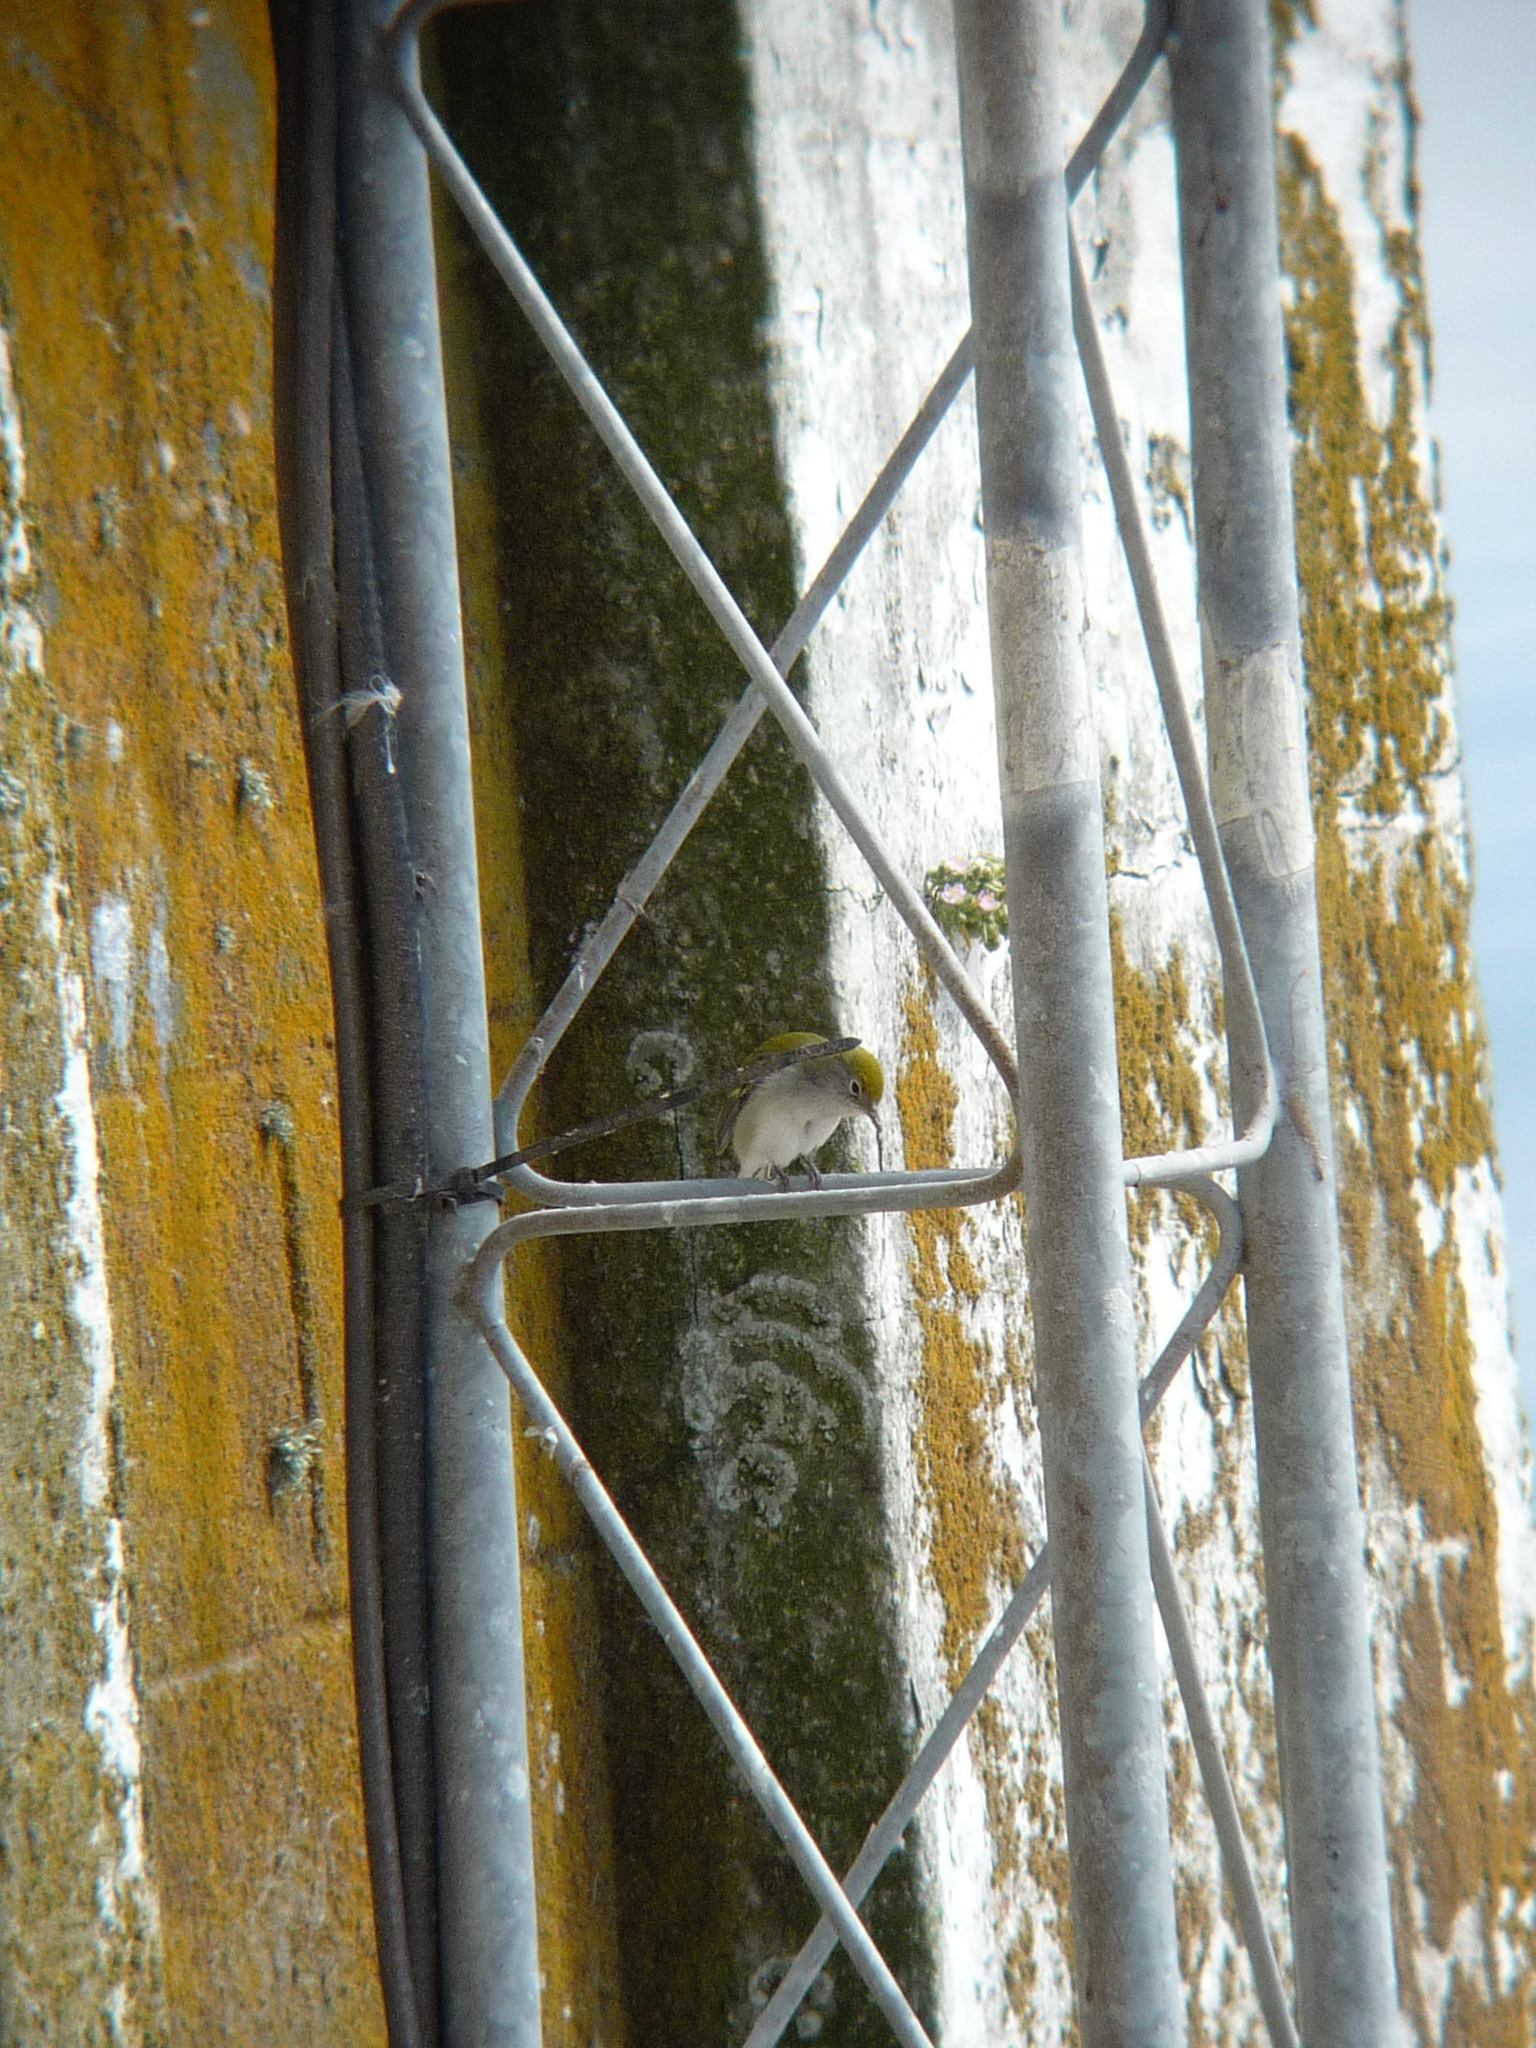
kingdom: Animalia
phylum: Chordata
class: Aves
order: Passeriformes
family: Parulidae
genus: Setophaga
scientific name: Setophaga pensylvanica
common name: Chestnut-sided warbler
